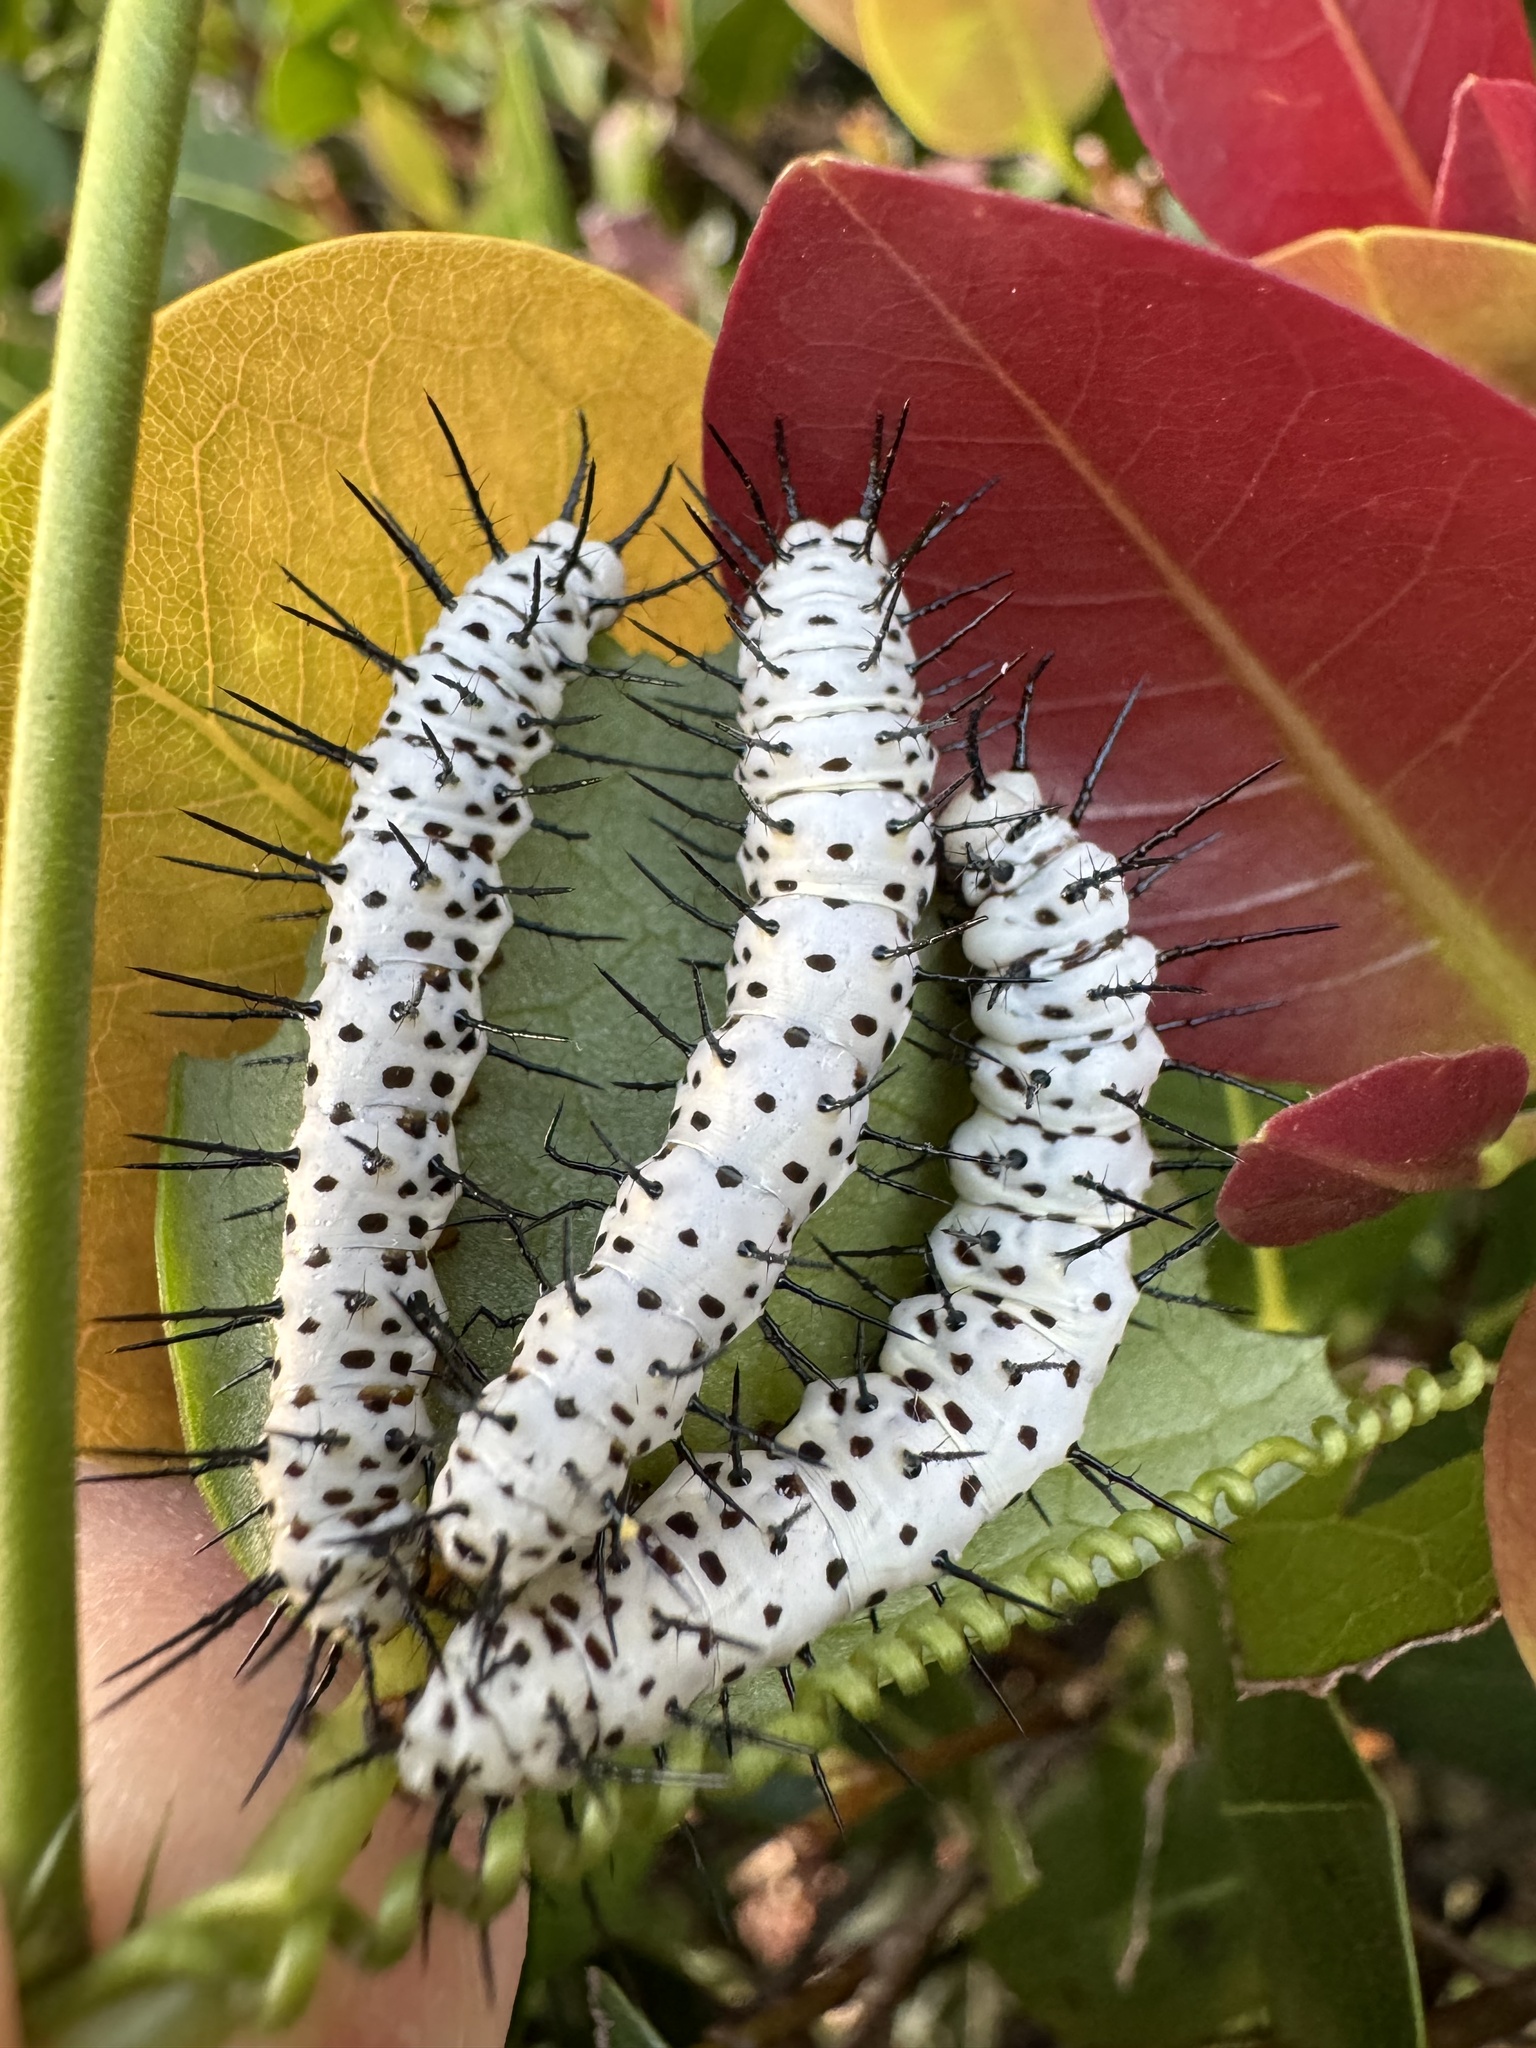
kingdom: Animalia
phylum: Arthropoda
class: Insecta
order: Lepidoptera
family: Nymphalidae
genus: Heliconius
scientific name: Heliconius charithonia
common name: Zebra long wing
